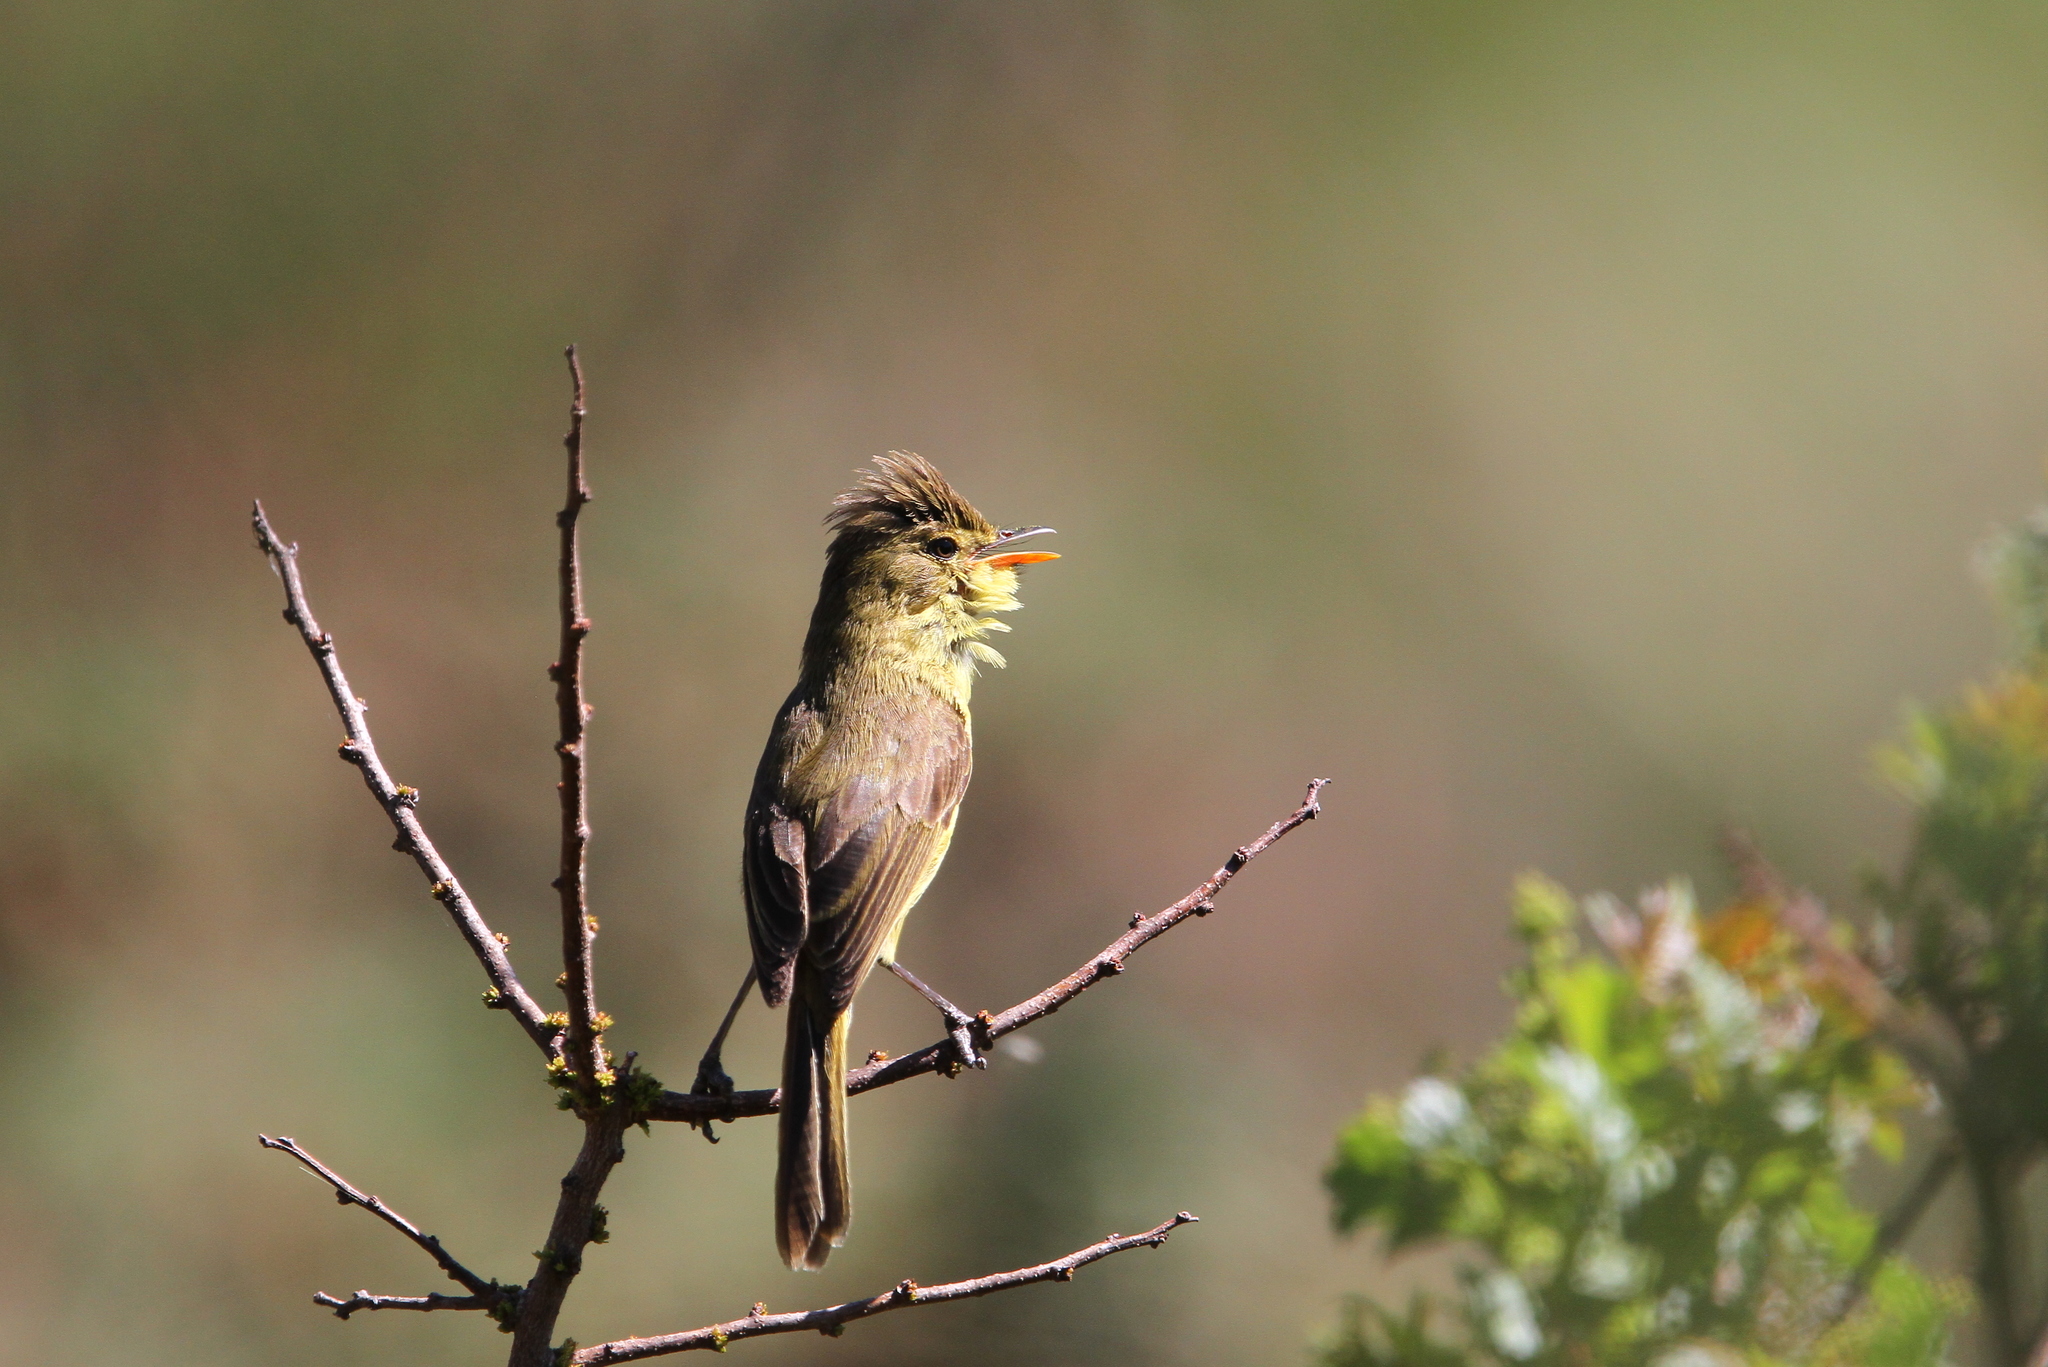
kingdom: Animalia
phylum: Chordata
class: Aves
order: Passeriformes
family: Acrocephalidae
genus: Iduna
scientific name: Iduna natalensis
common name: African yellow warbler
